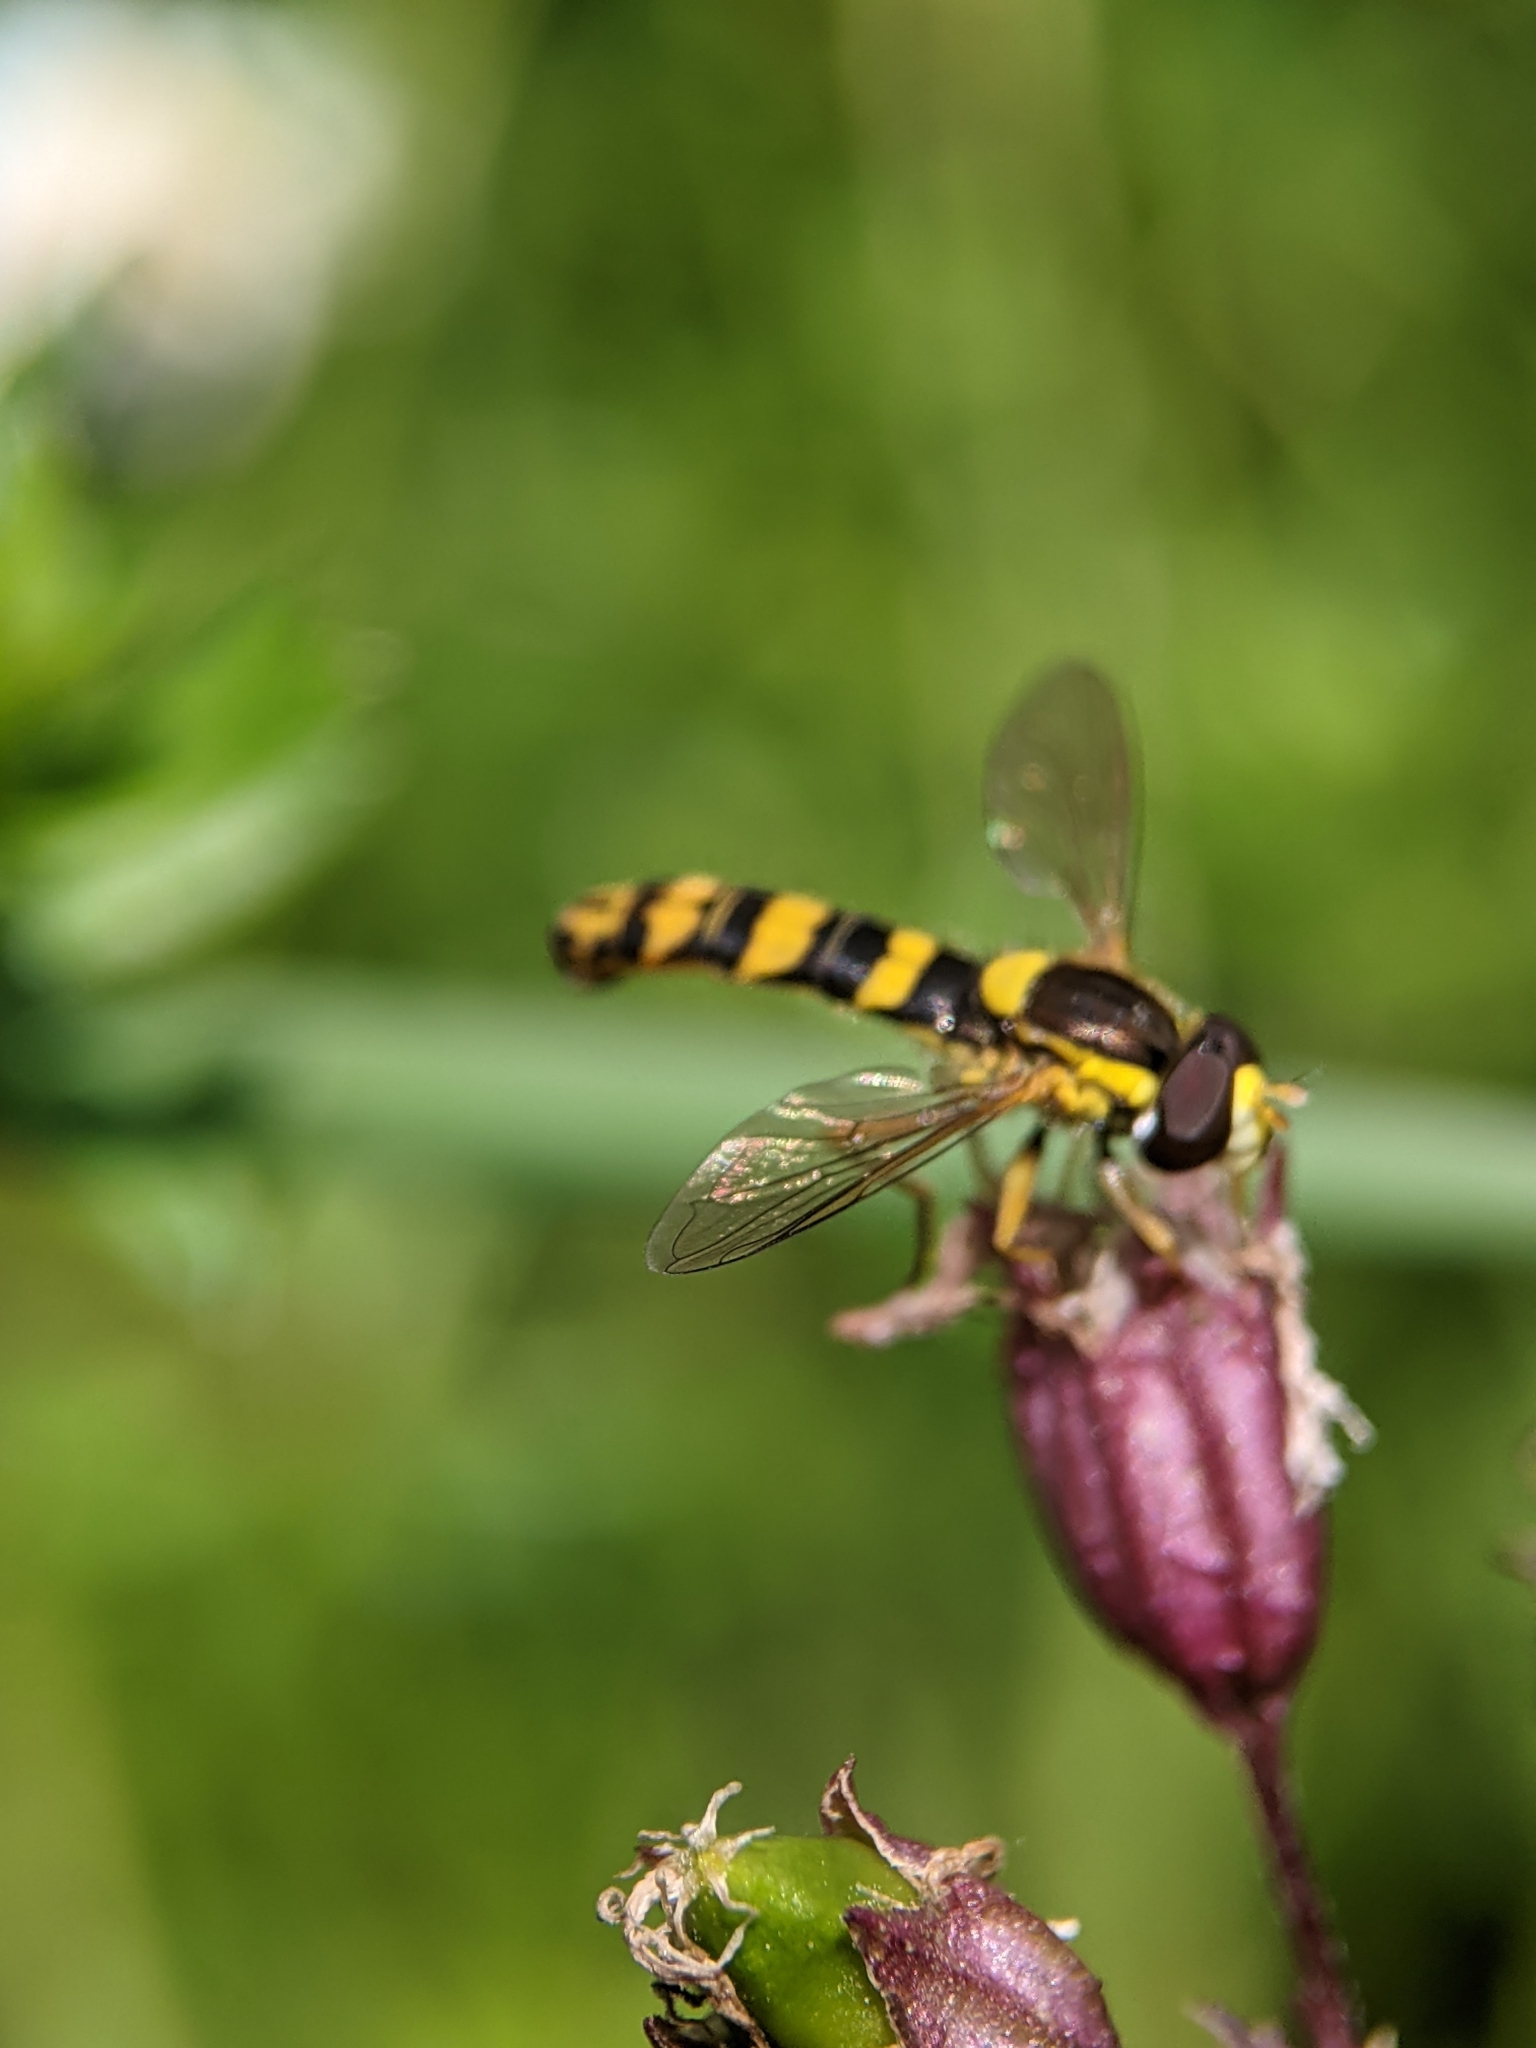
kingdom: Animalia
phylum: Arthropoda
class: Insecta
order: Diptera
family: Syrphidae
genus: Sphaerophoria
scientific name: Sphaerophoria scripta
